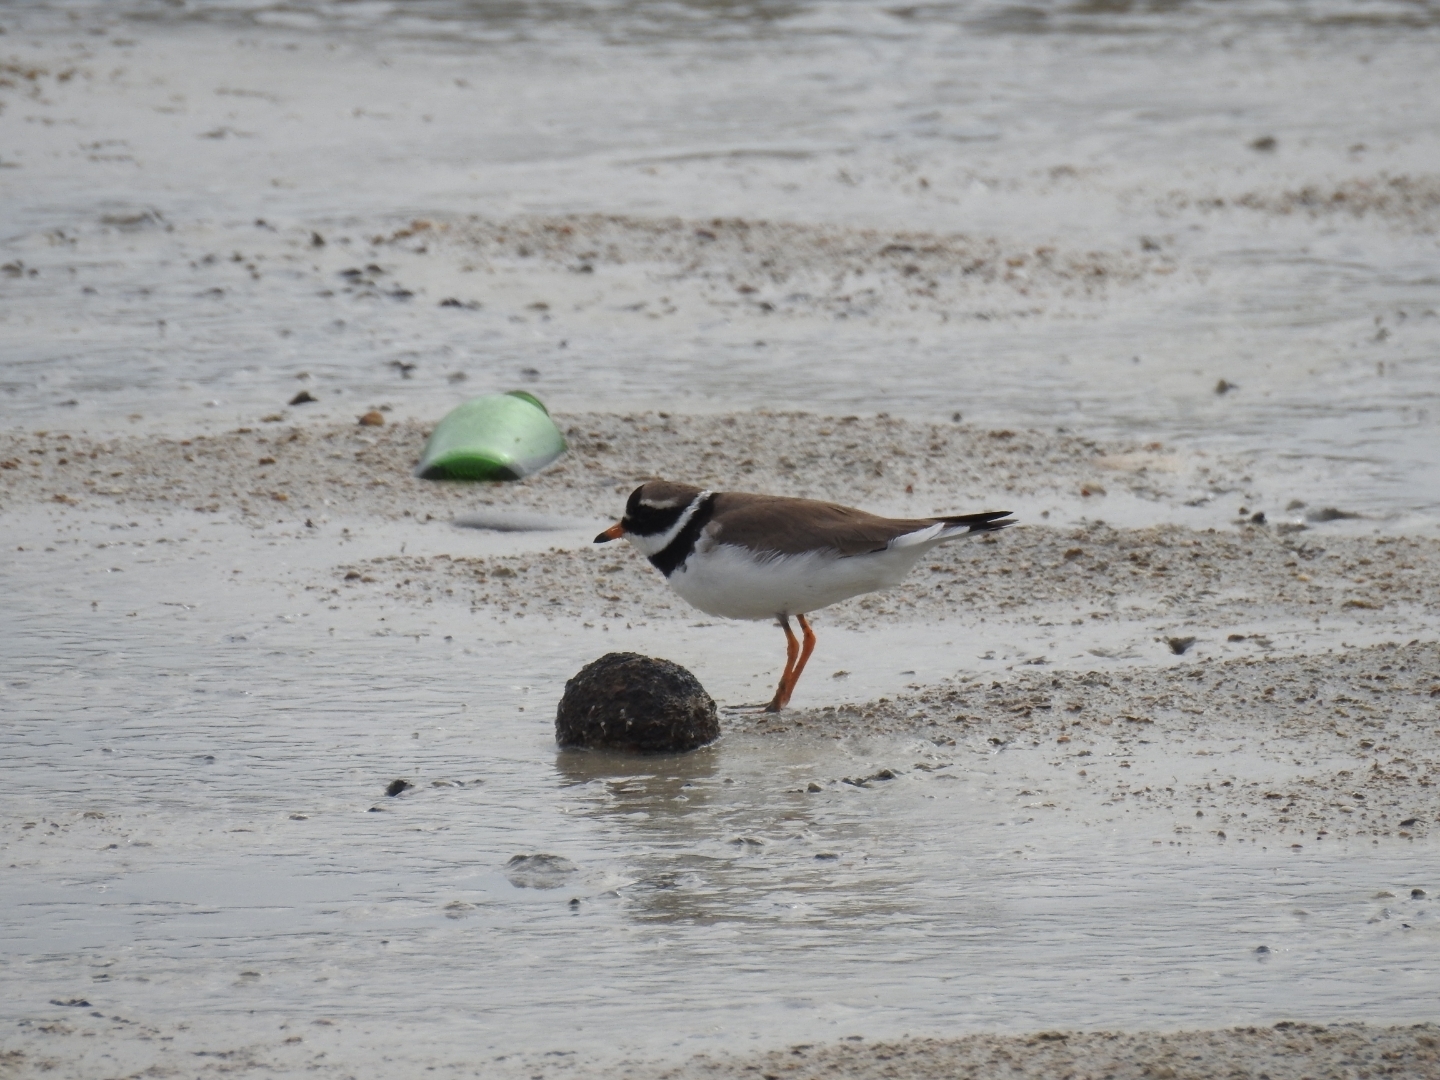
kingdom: Animalia
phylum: Chordata
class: Aves
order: Charadriiformes
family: Charadriidae
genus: Charadrius
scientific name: Charadrius hiaticula
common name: Common ringed plover
